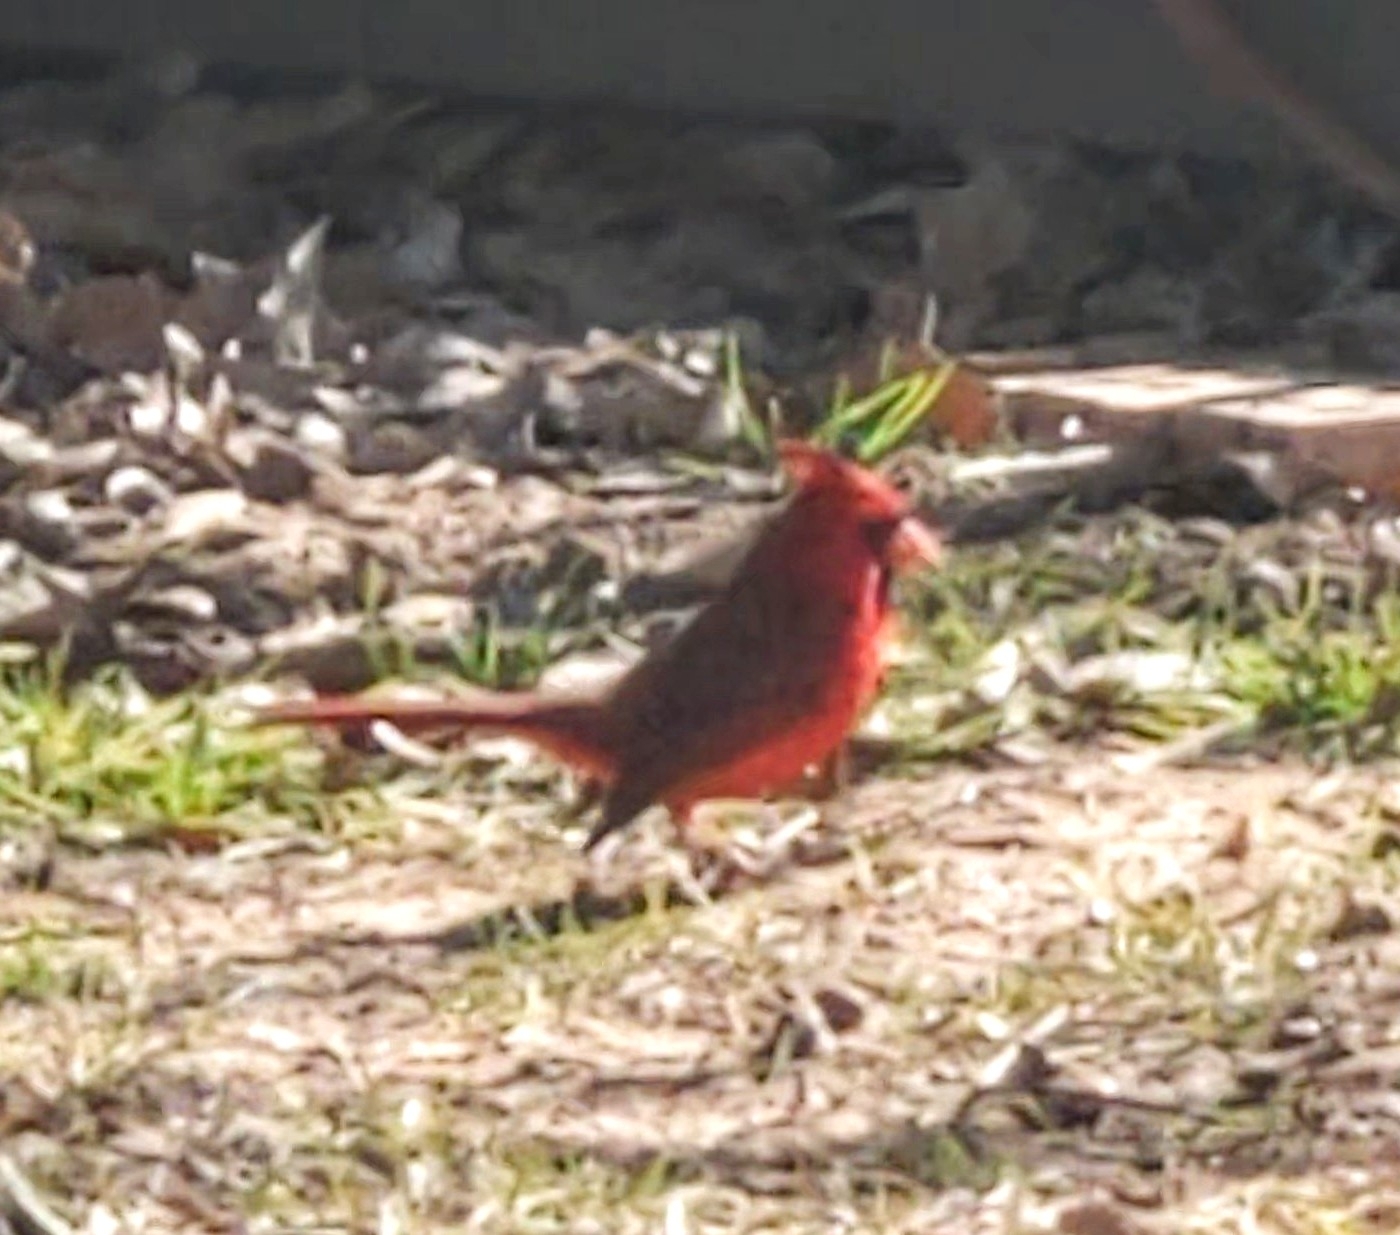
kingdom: Animalia
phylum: Chordata
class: Aves
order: Passeriformes
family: Cardinalidae
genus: Cardinalis
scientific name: Cardinalis cardinalis
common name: Northern cardinal
